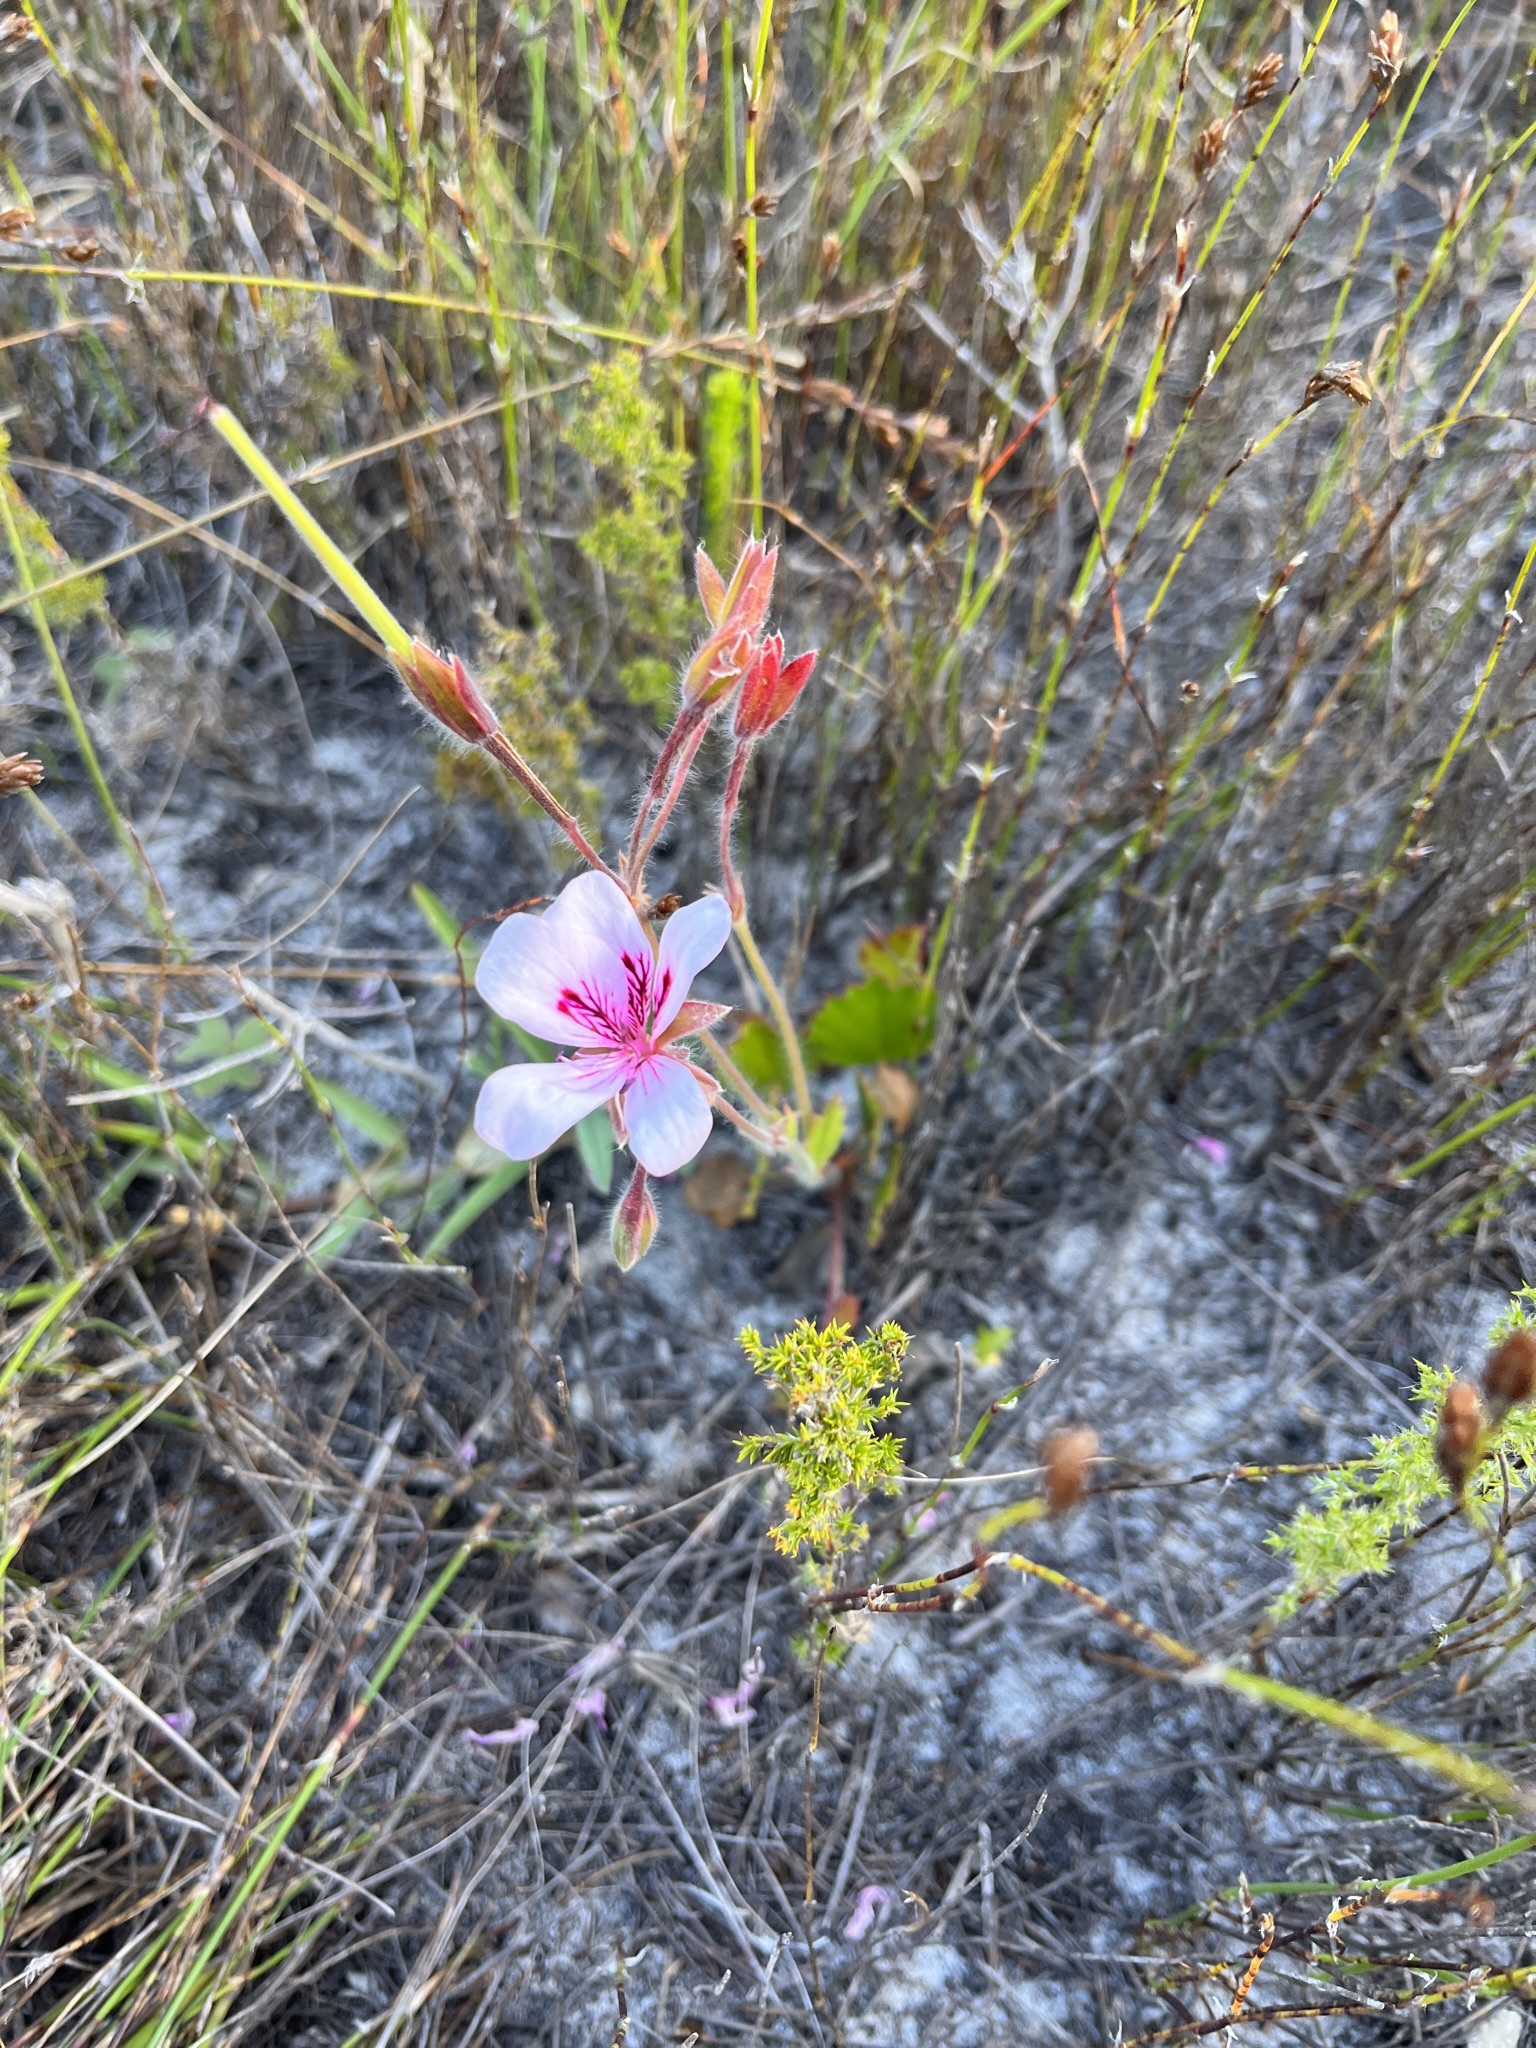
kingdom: Plantae
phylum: Tracheophyta
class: Magnoliopsida
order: Geraniales
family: Geraniaceae
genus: Pelargonium
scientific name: Pelargonium elegans
